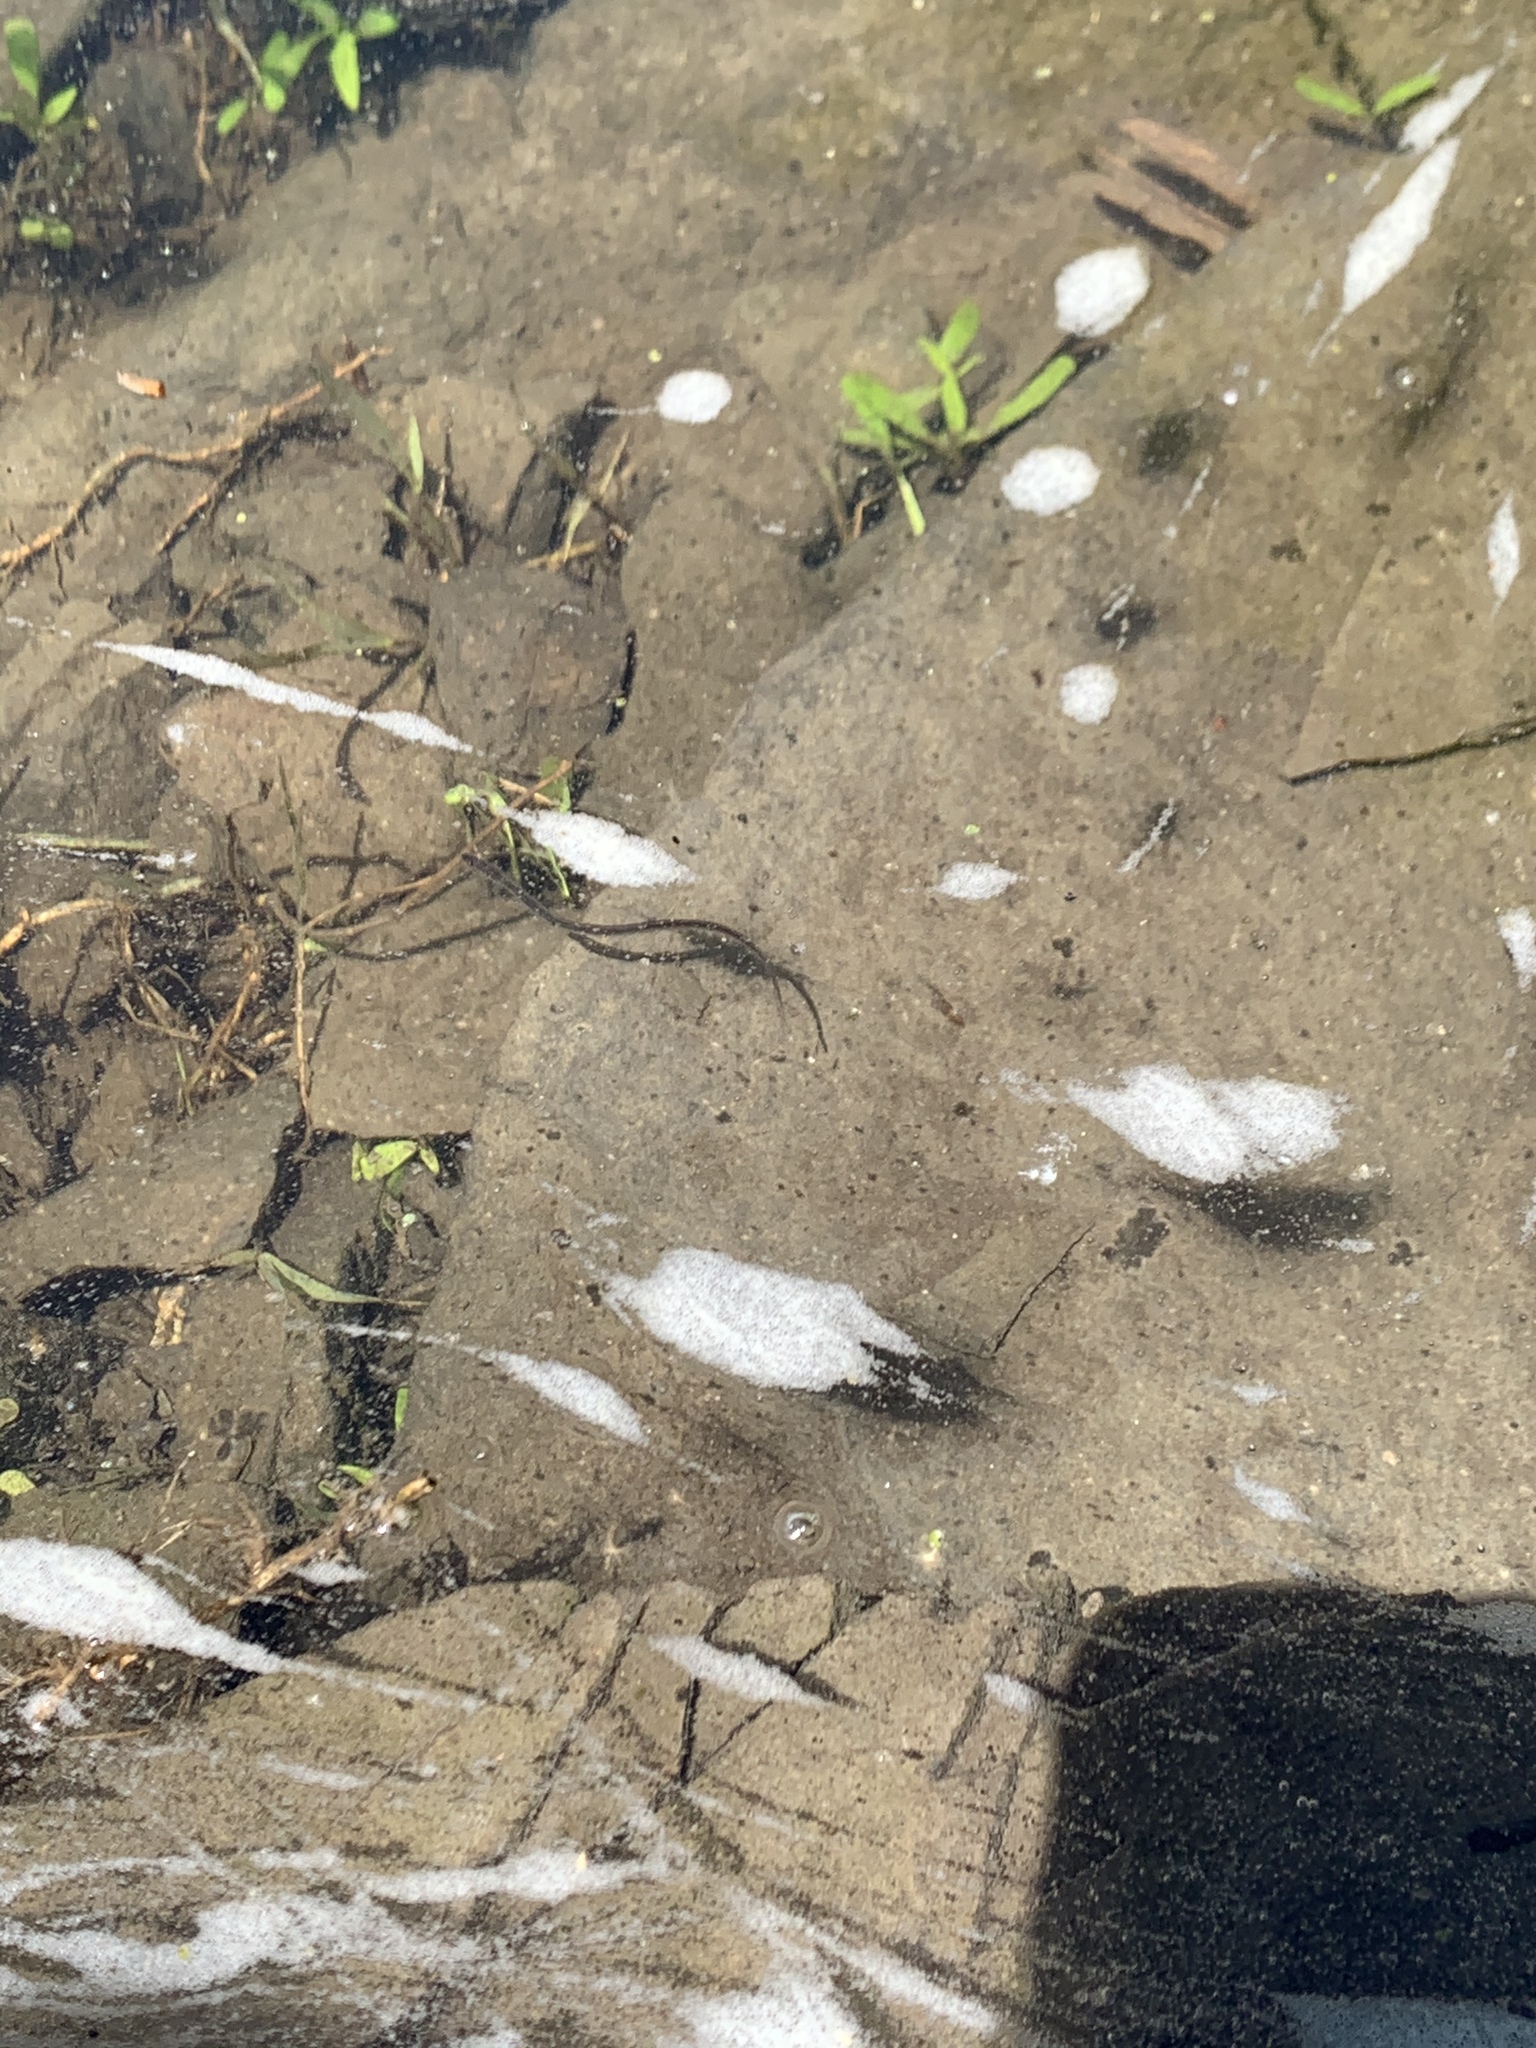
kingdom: Animalia
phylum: Chordata
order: Anguilliformes
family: Anguillidae
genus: Anguilla
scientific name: Anguilla rostrata
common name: American eel
